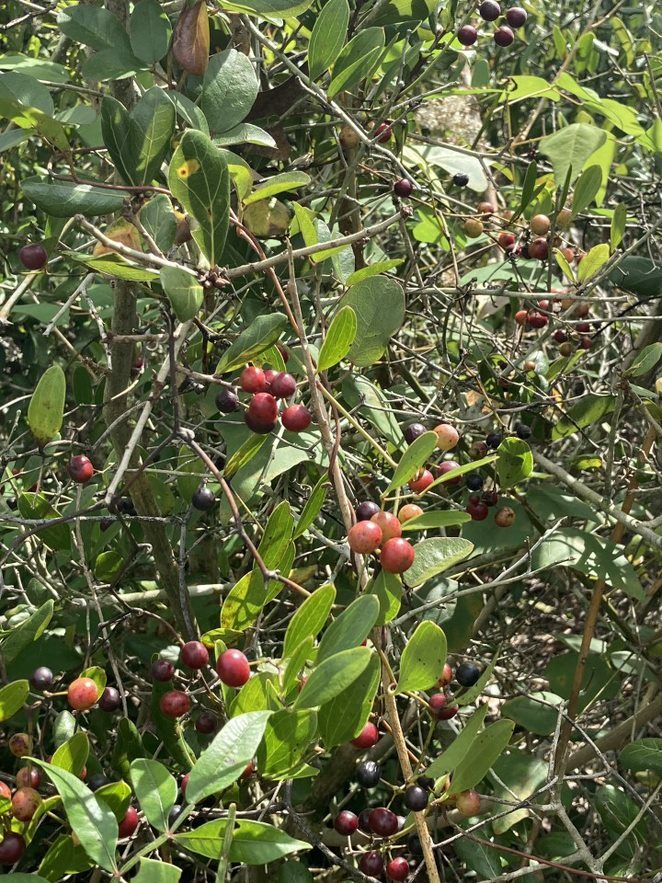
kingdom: Plantae
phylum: Tracheophyta
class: Liliopsida
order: Liliales
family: Smilacaceae
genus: Smilax
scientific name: Smilax auriculata
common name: Wild bamboo
